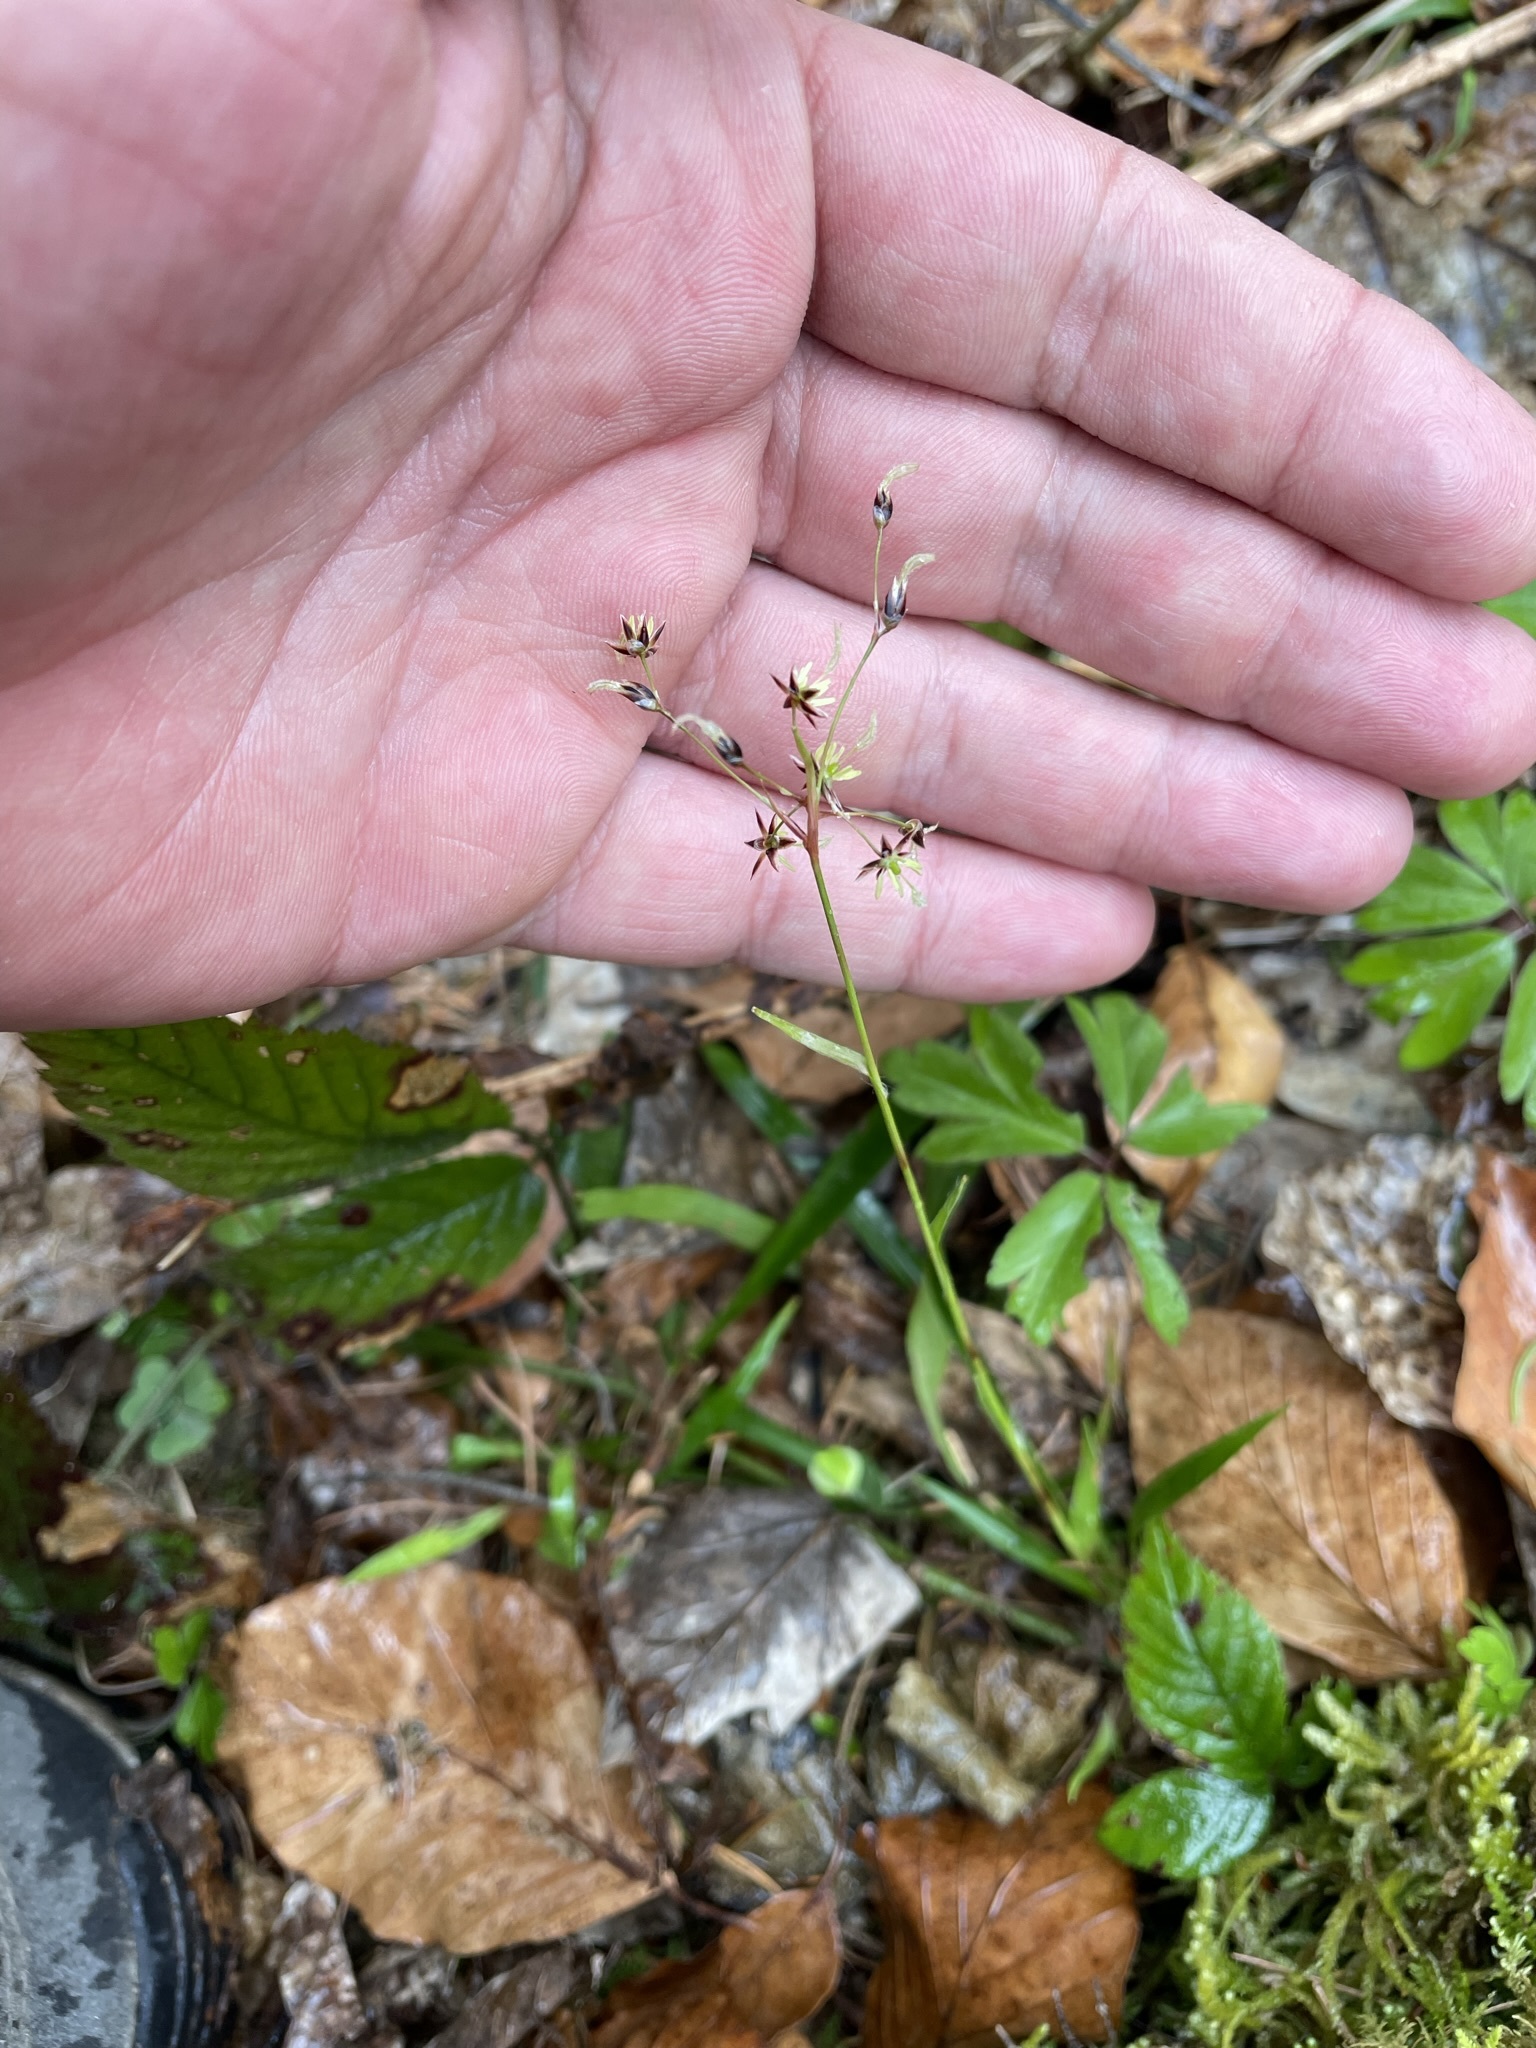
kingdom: Plantae
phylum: Tracheophyta
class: Liliopsida
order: Poales
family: Juncaceae
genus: Luzula
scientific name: Luzula pilosa
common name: Hairy wood-rush
